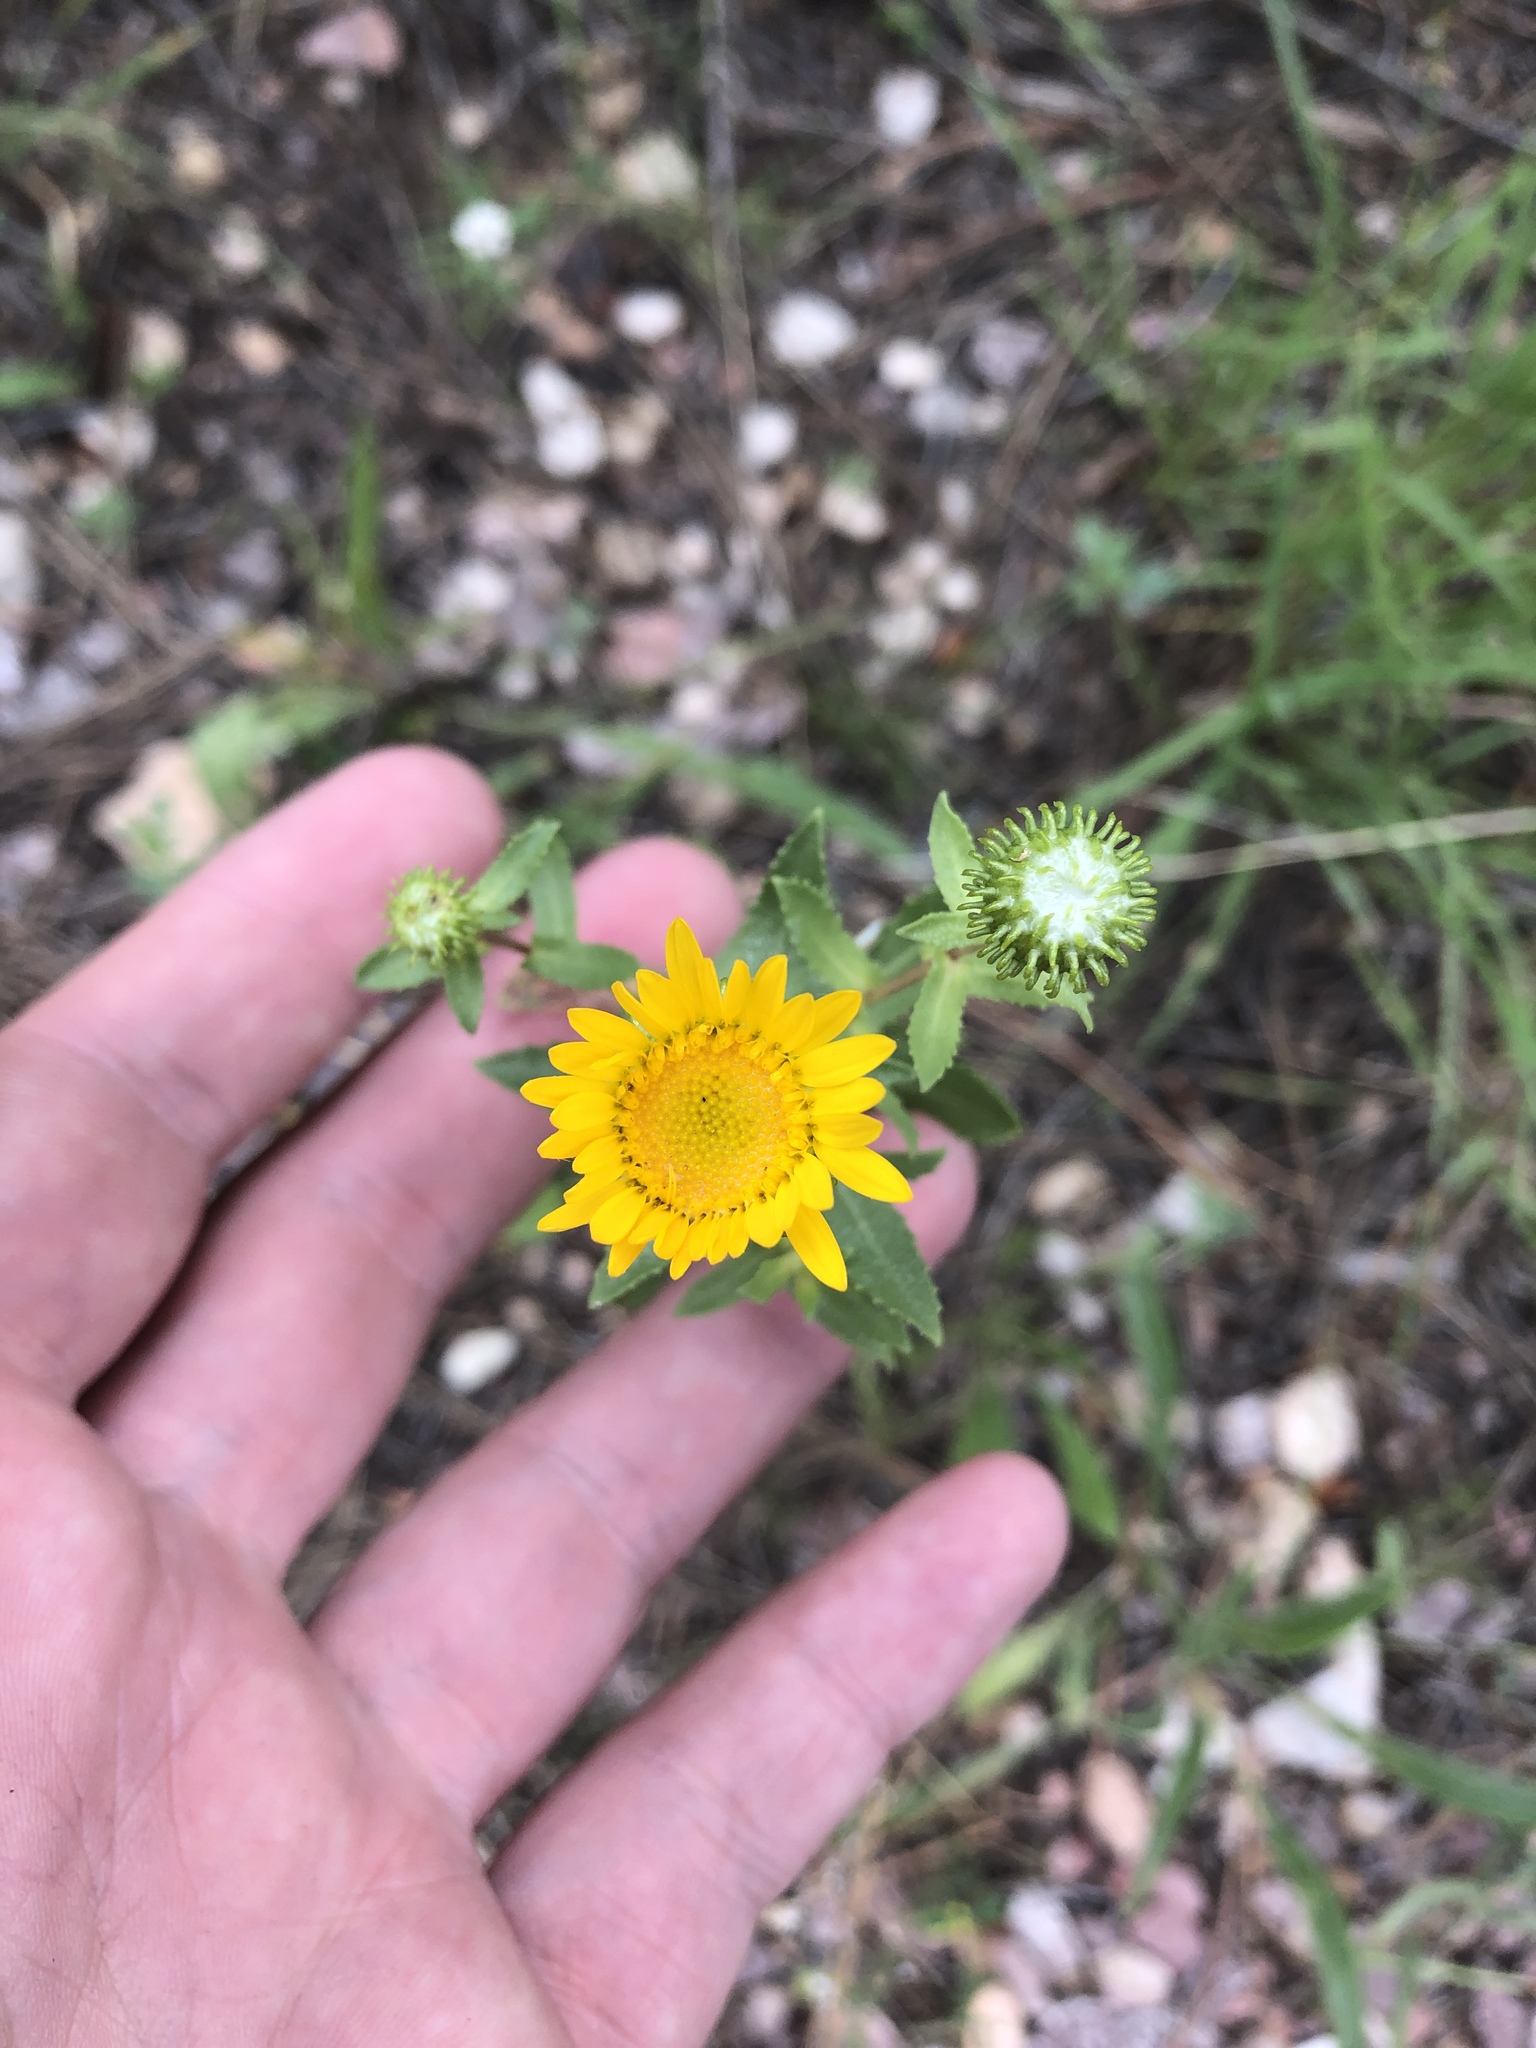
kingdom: Plantae
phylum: Tracheophyta
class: Magnoliopsida
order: Asterales
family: Asteraceae
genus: Grindelia
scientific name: Grindelia squarrosa
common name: Curly-cup gumweed
